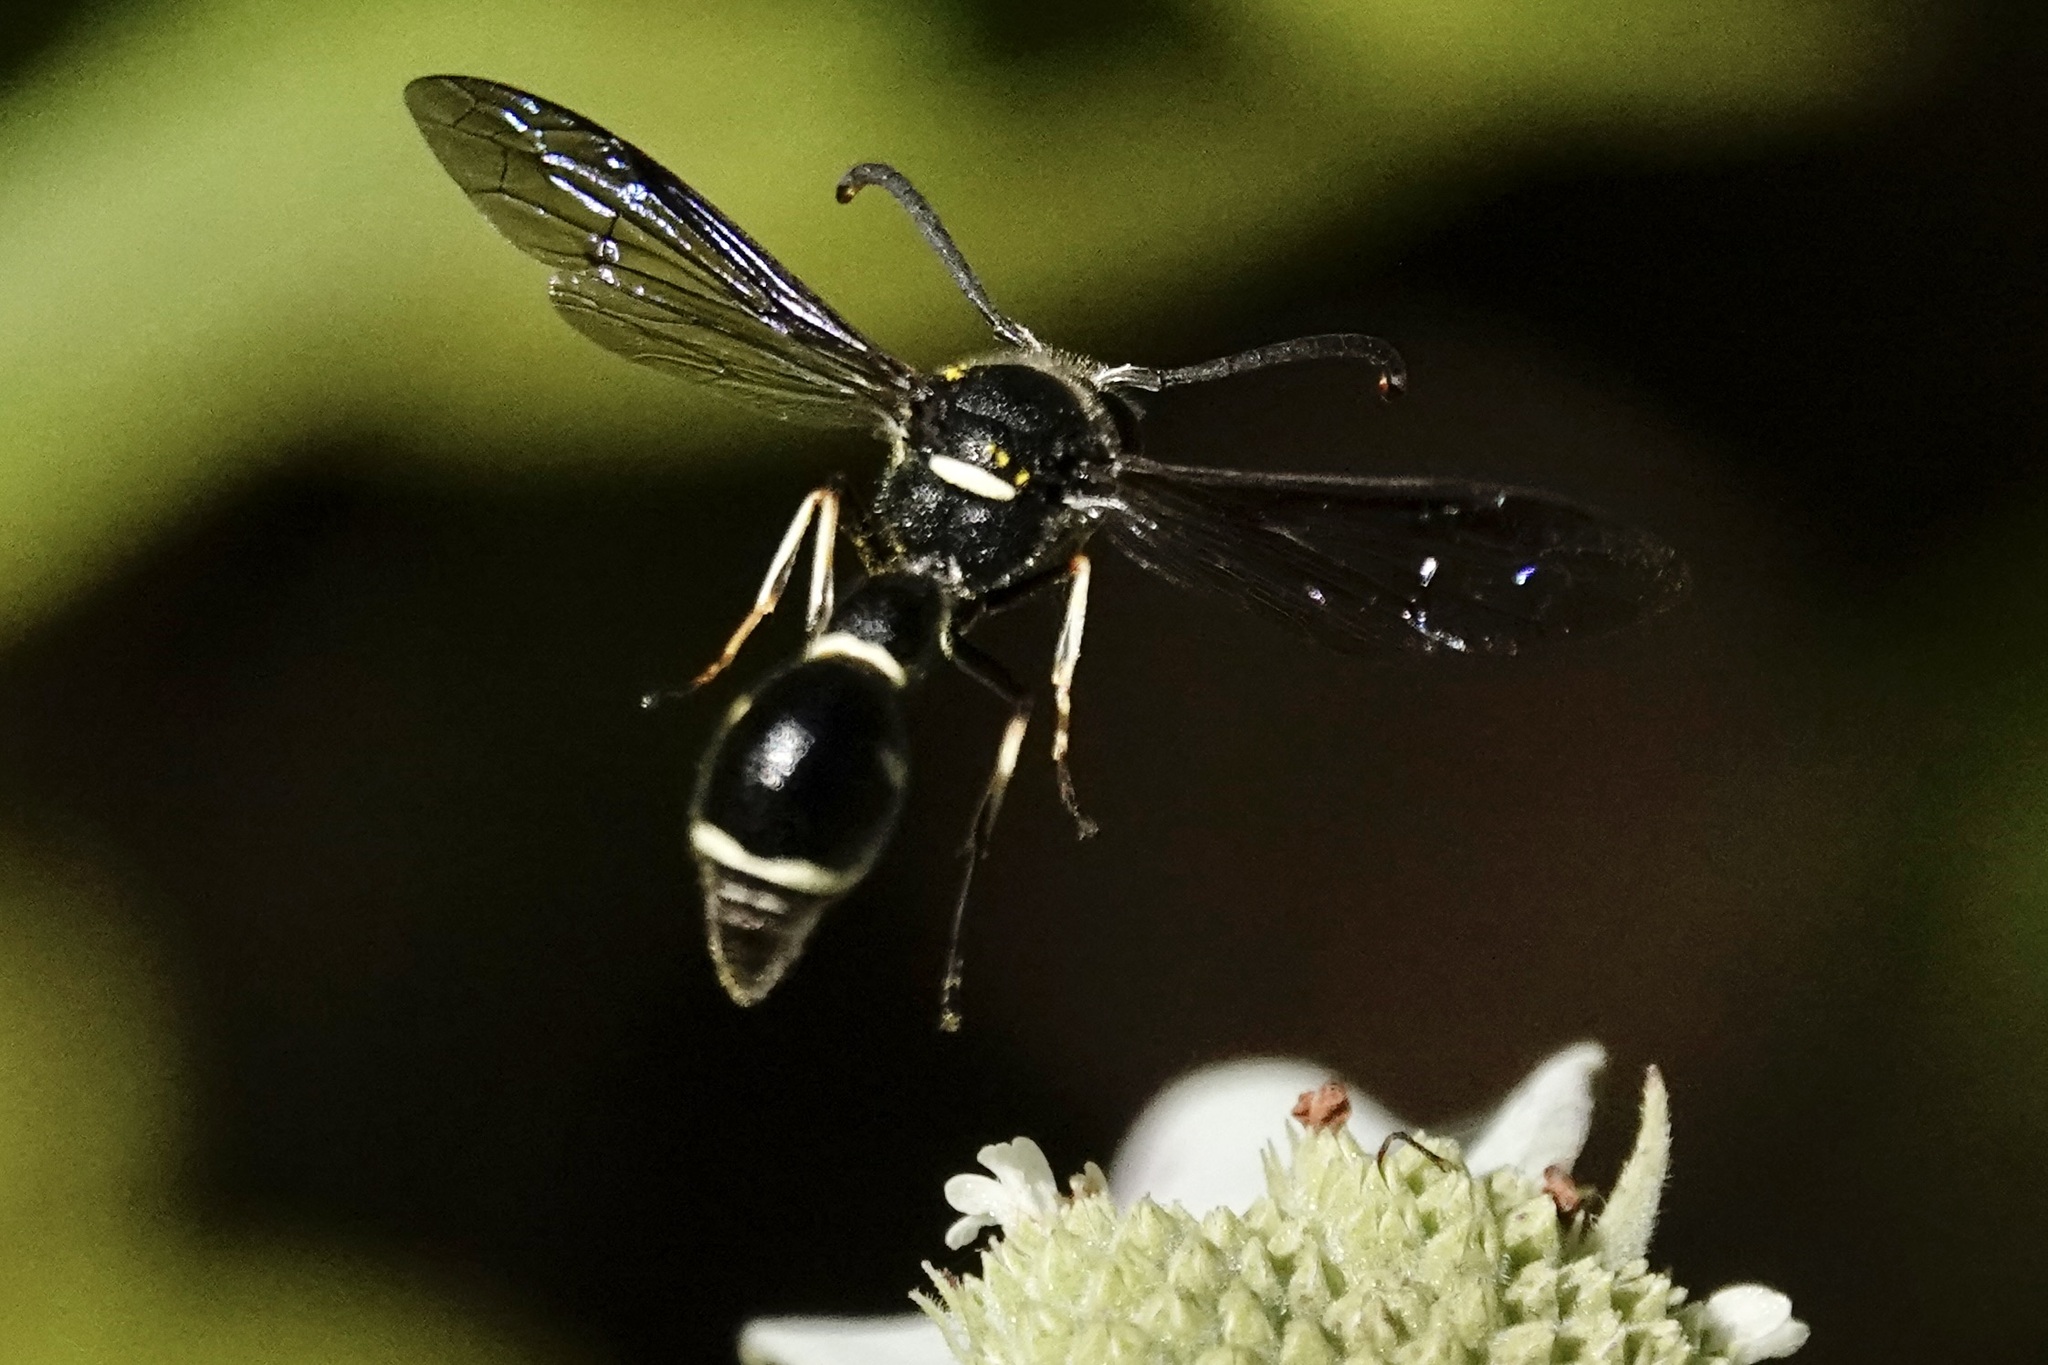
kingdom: Animalia
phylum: Arthropoda
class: Insecta
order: Hymenoptera
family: Vespidae
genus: Eumenes
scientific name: Eumenes fraternus
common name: Fraternal potter wasp
